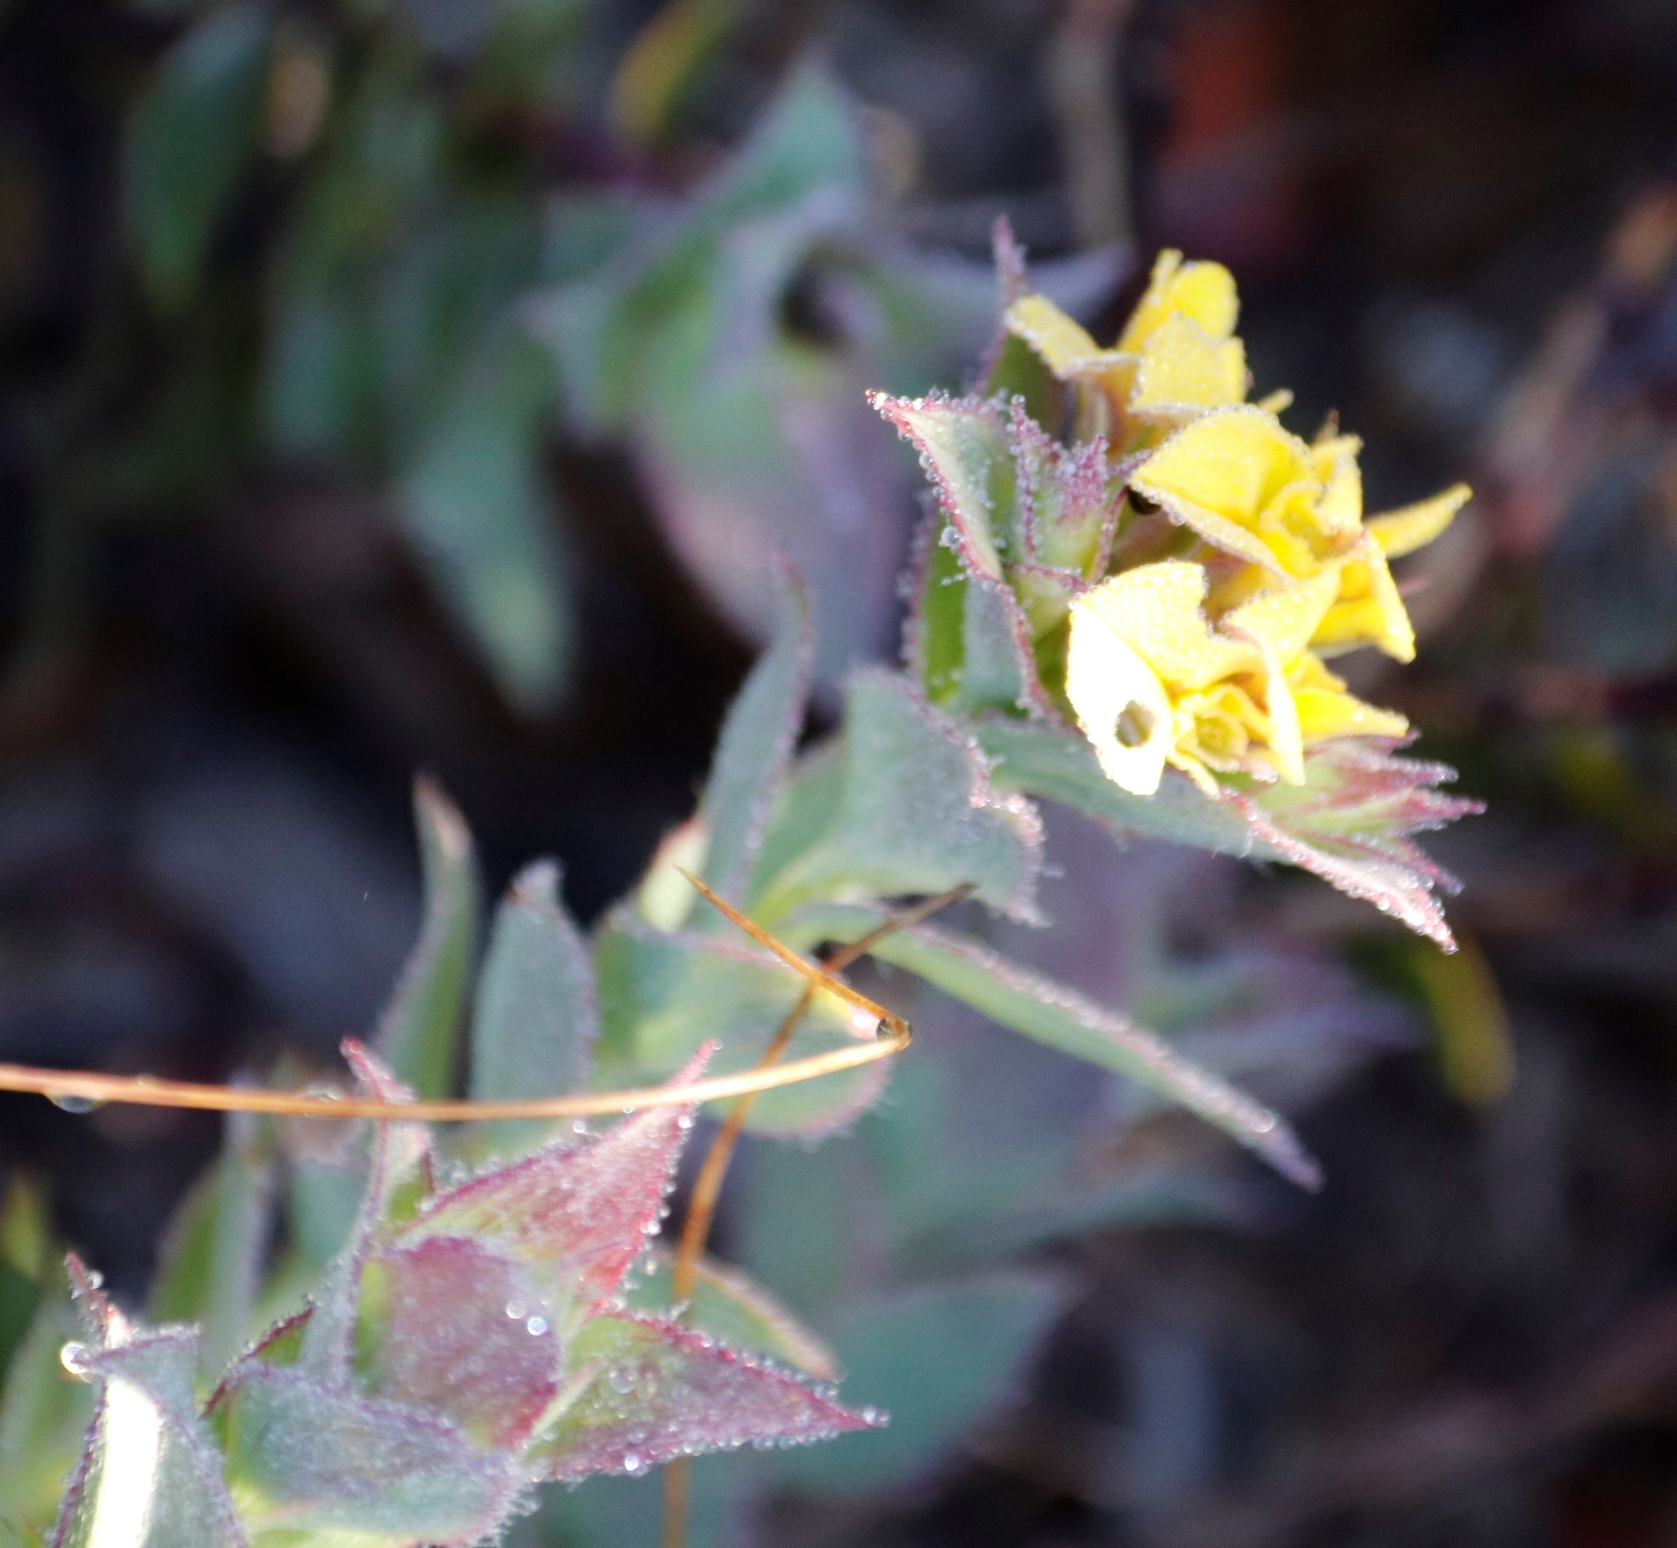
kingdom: Plantae
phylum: Tracheophyta
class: Magnoliopsida
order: Fabales
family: Fabaceae
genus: Aspalathus
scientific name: Aspalathus crenata
